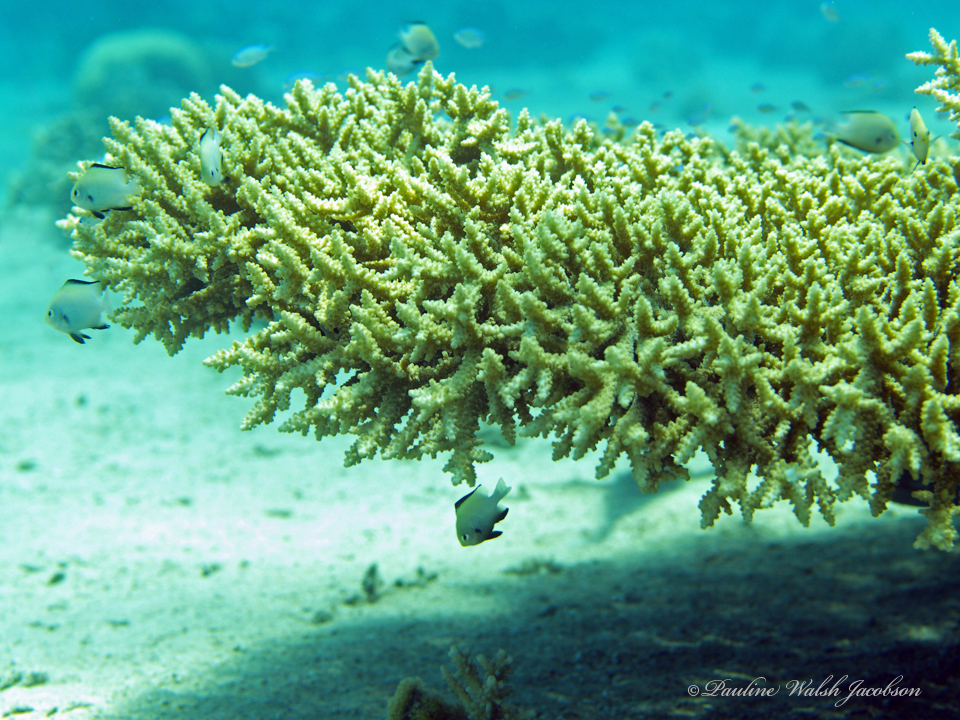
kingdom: Animalia
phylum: Chordata
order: Perciformes
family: Pomacentridae
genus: Dascyllus
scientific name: Dascyllus marginatus
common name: Red sea dascyllus
